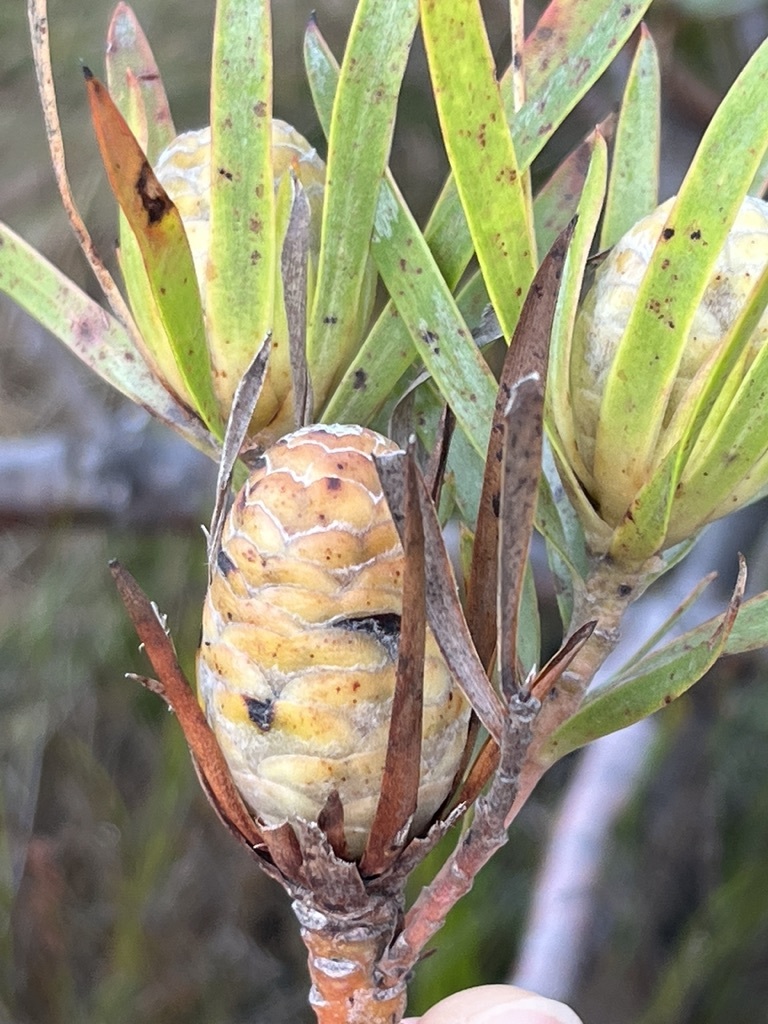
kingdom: Plantae
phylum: Tracheophyta
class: Magnoliopsida
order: Proteales
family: Proteaceae
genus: Leucadendron
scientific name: Leucadendron xanthoconus
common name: Sickle-leaf conebush
